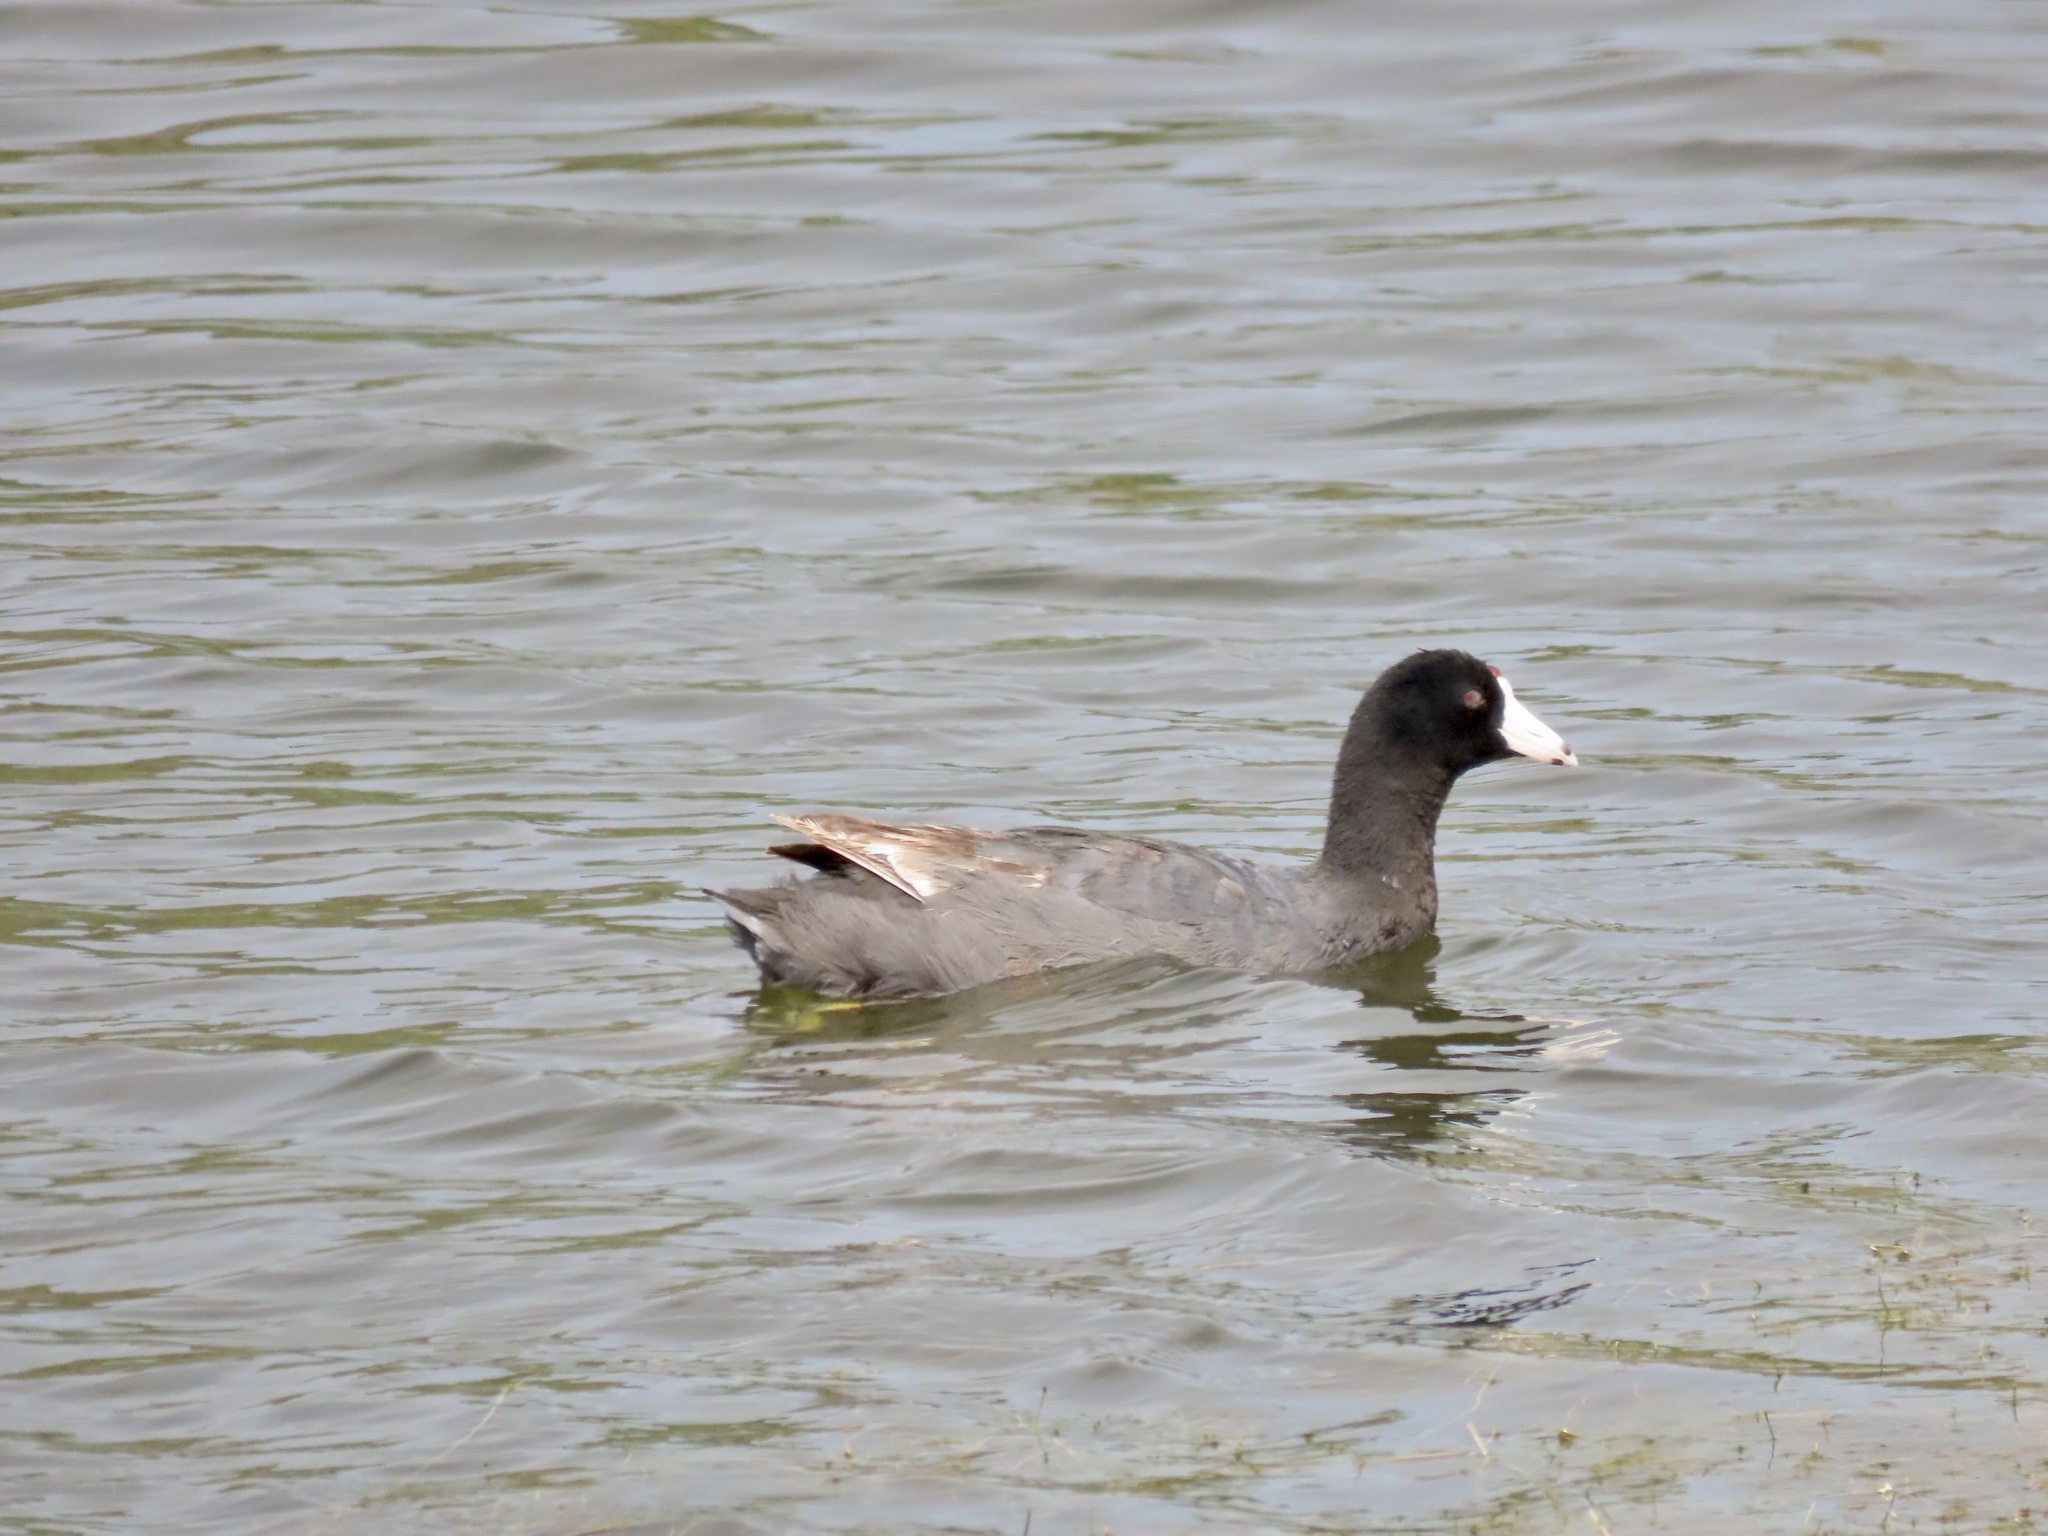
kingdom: Animalia
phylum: Chordata
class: Aves
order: Gruiformes
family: Rallidae
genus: Fulica
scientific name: Fulica americana
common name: American coot
